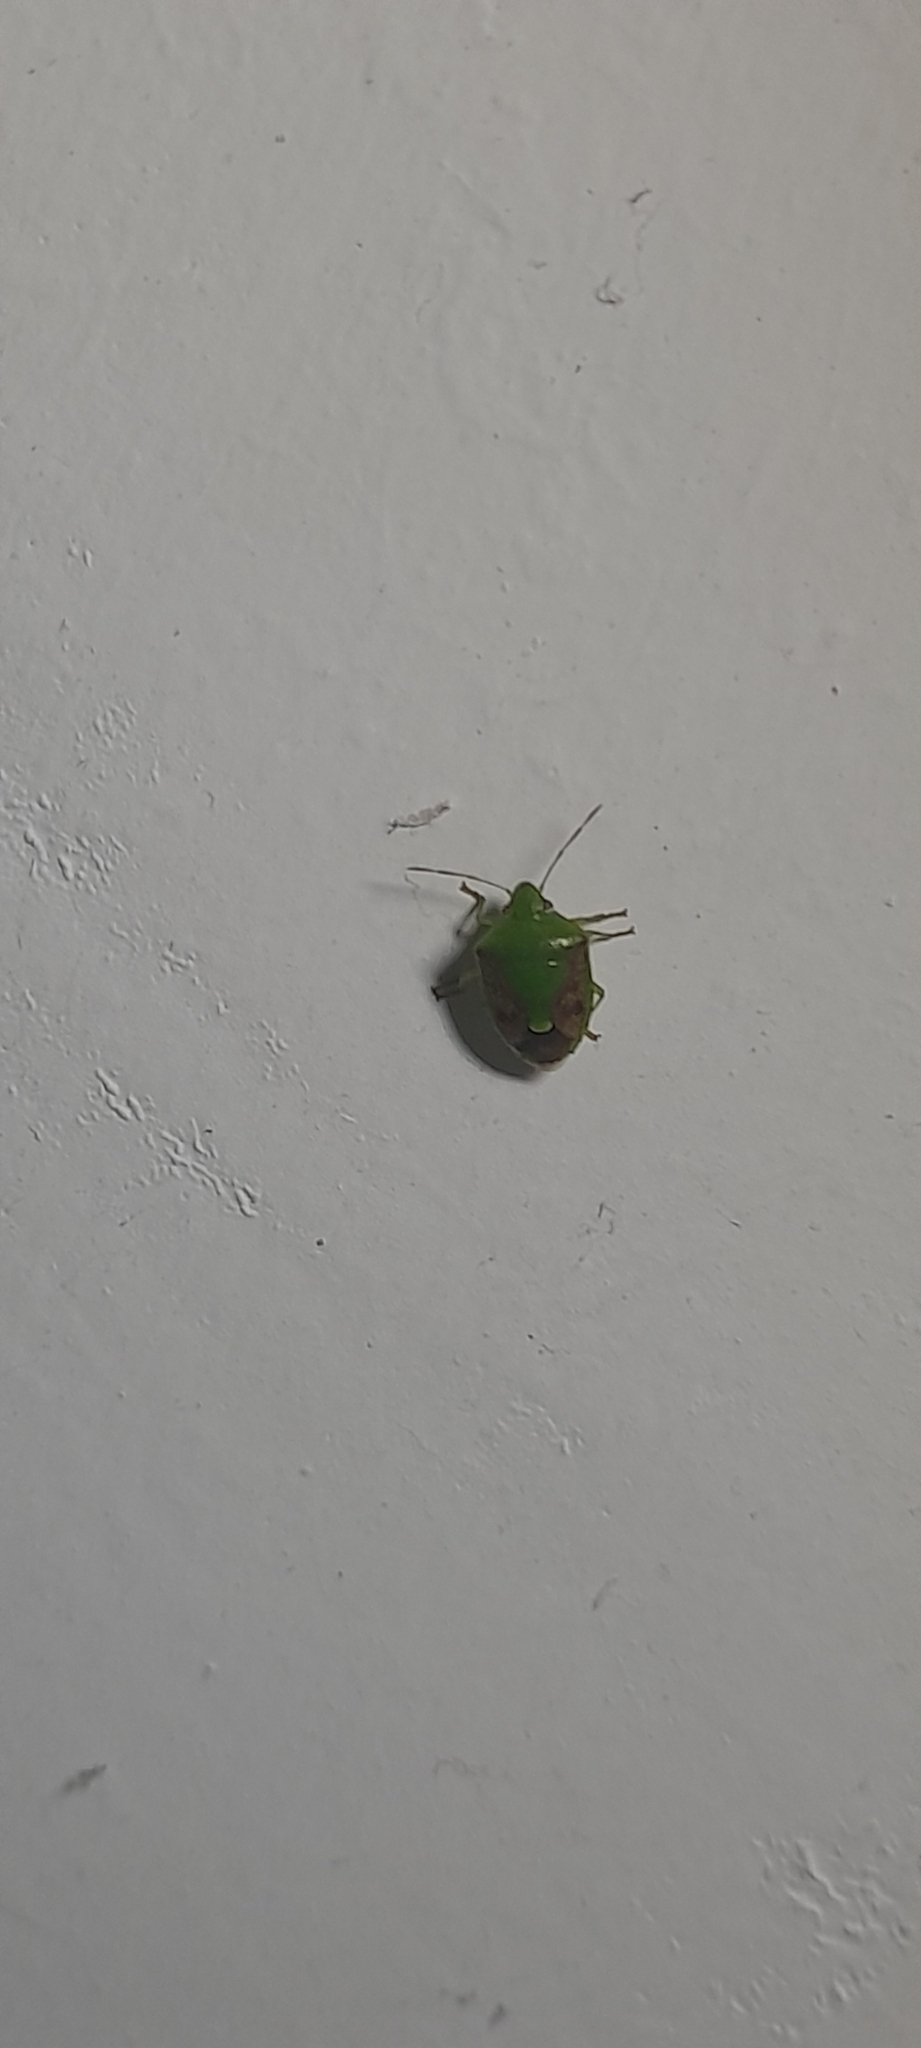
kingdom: Animalia
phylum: Arthropoda
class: Insecta
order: Hemiptera
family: Pentatomidae
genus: Plautia
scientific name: Plautia crossota
